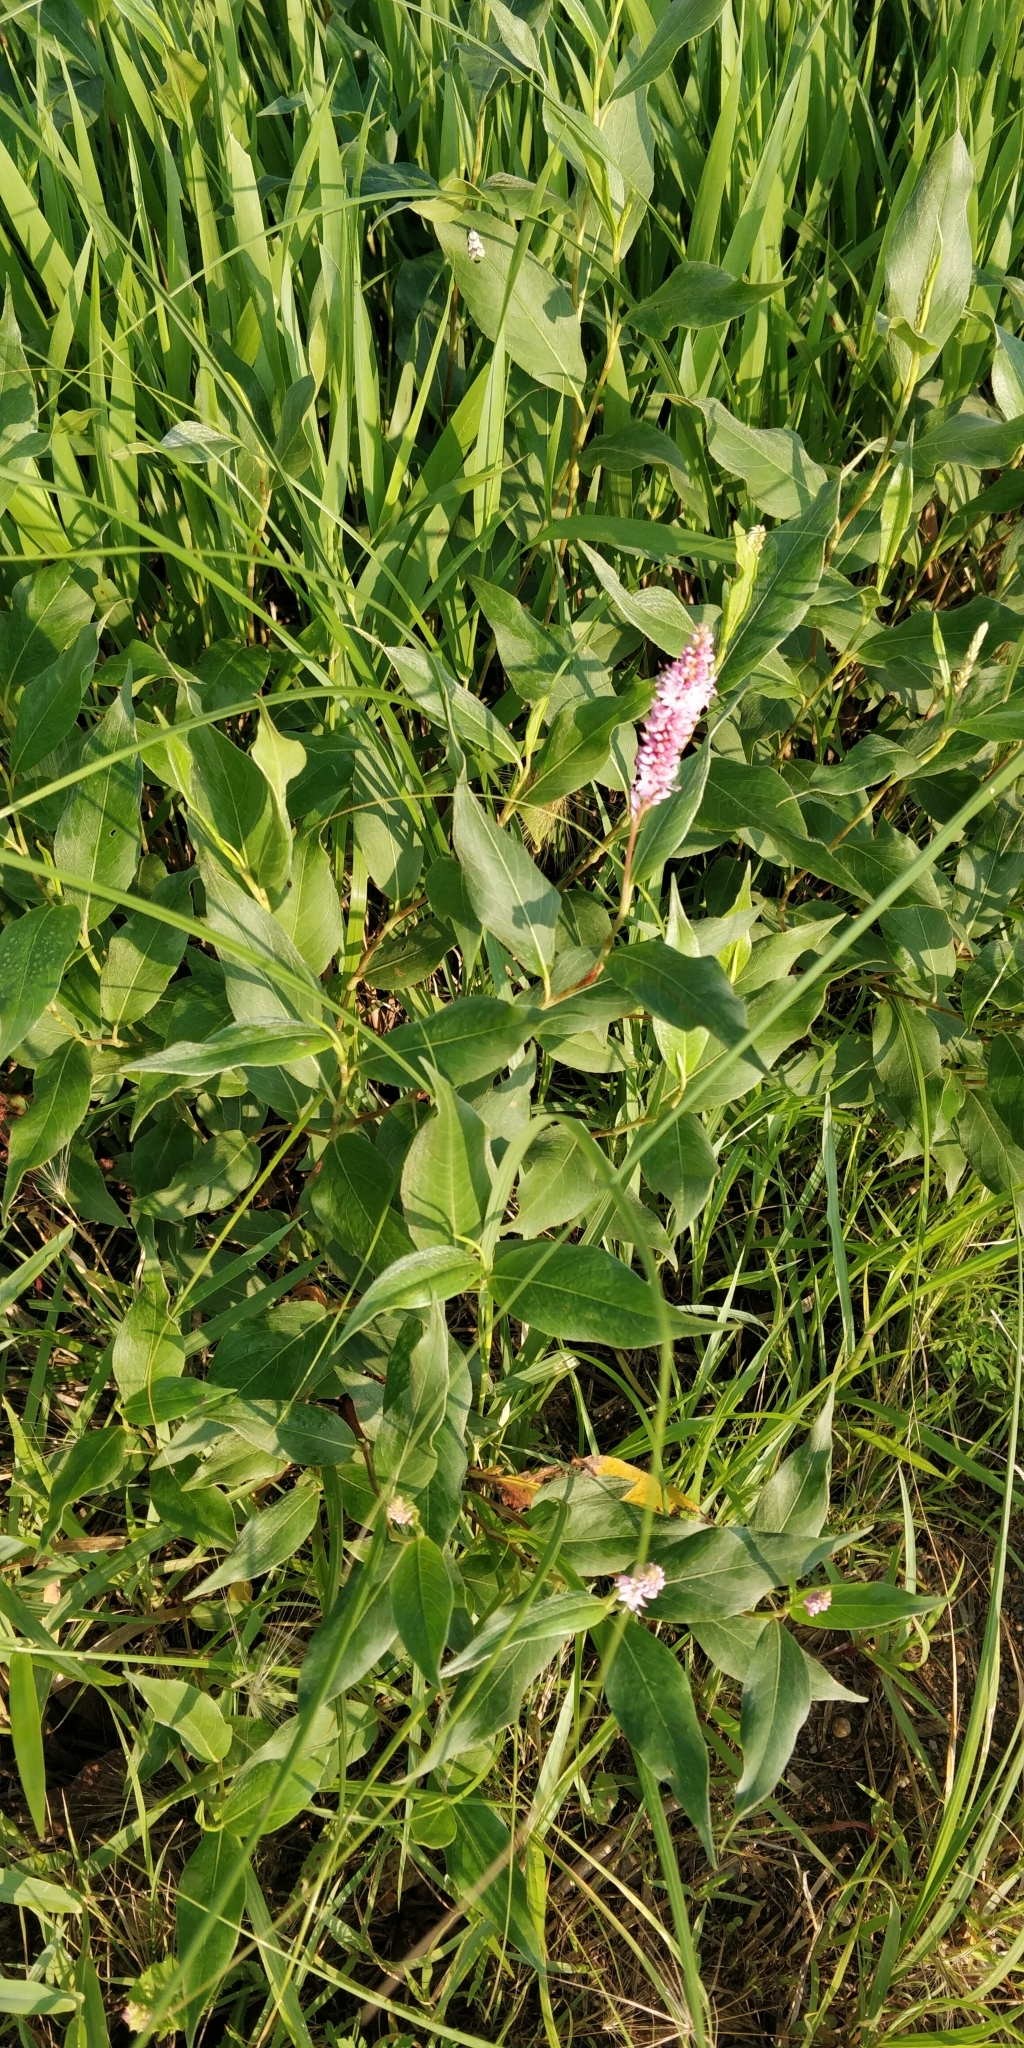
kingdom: Plantae
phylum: Tracheophyta
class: Magnoliopsida
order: Caryophyllales
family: Polygonaceae
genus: Persicaria
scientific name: Persicaria amphibia
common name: Amphibious bistort
